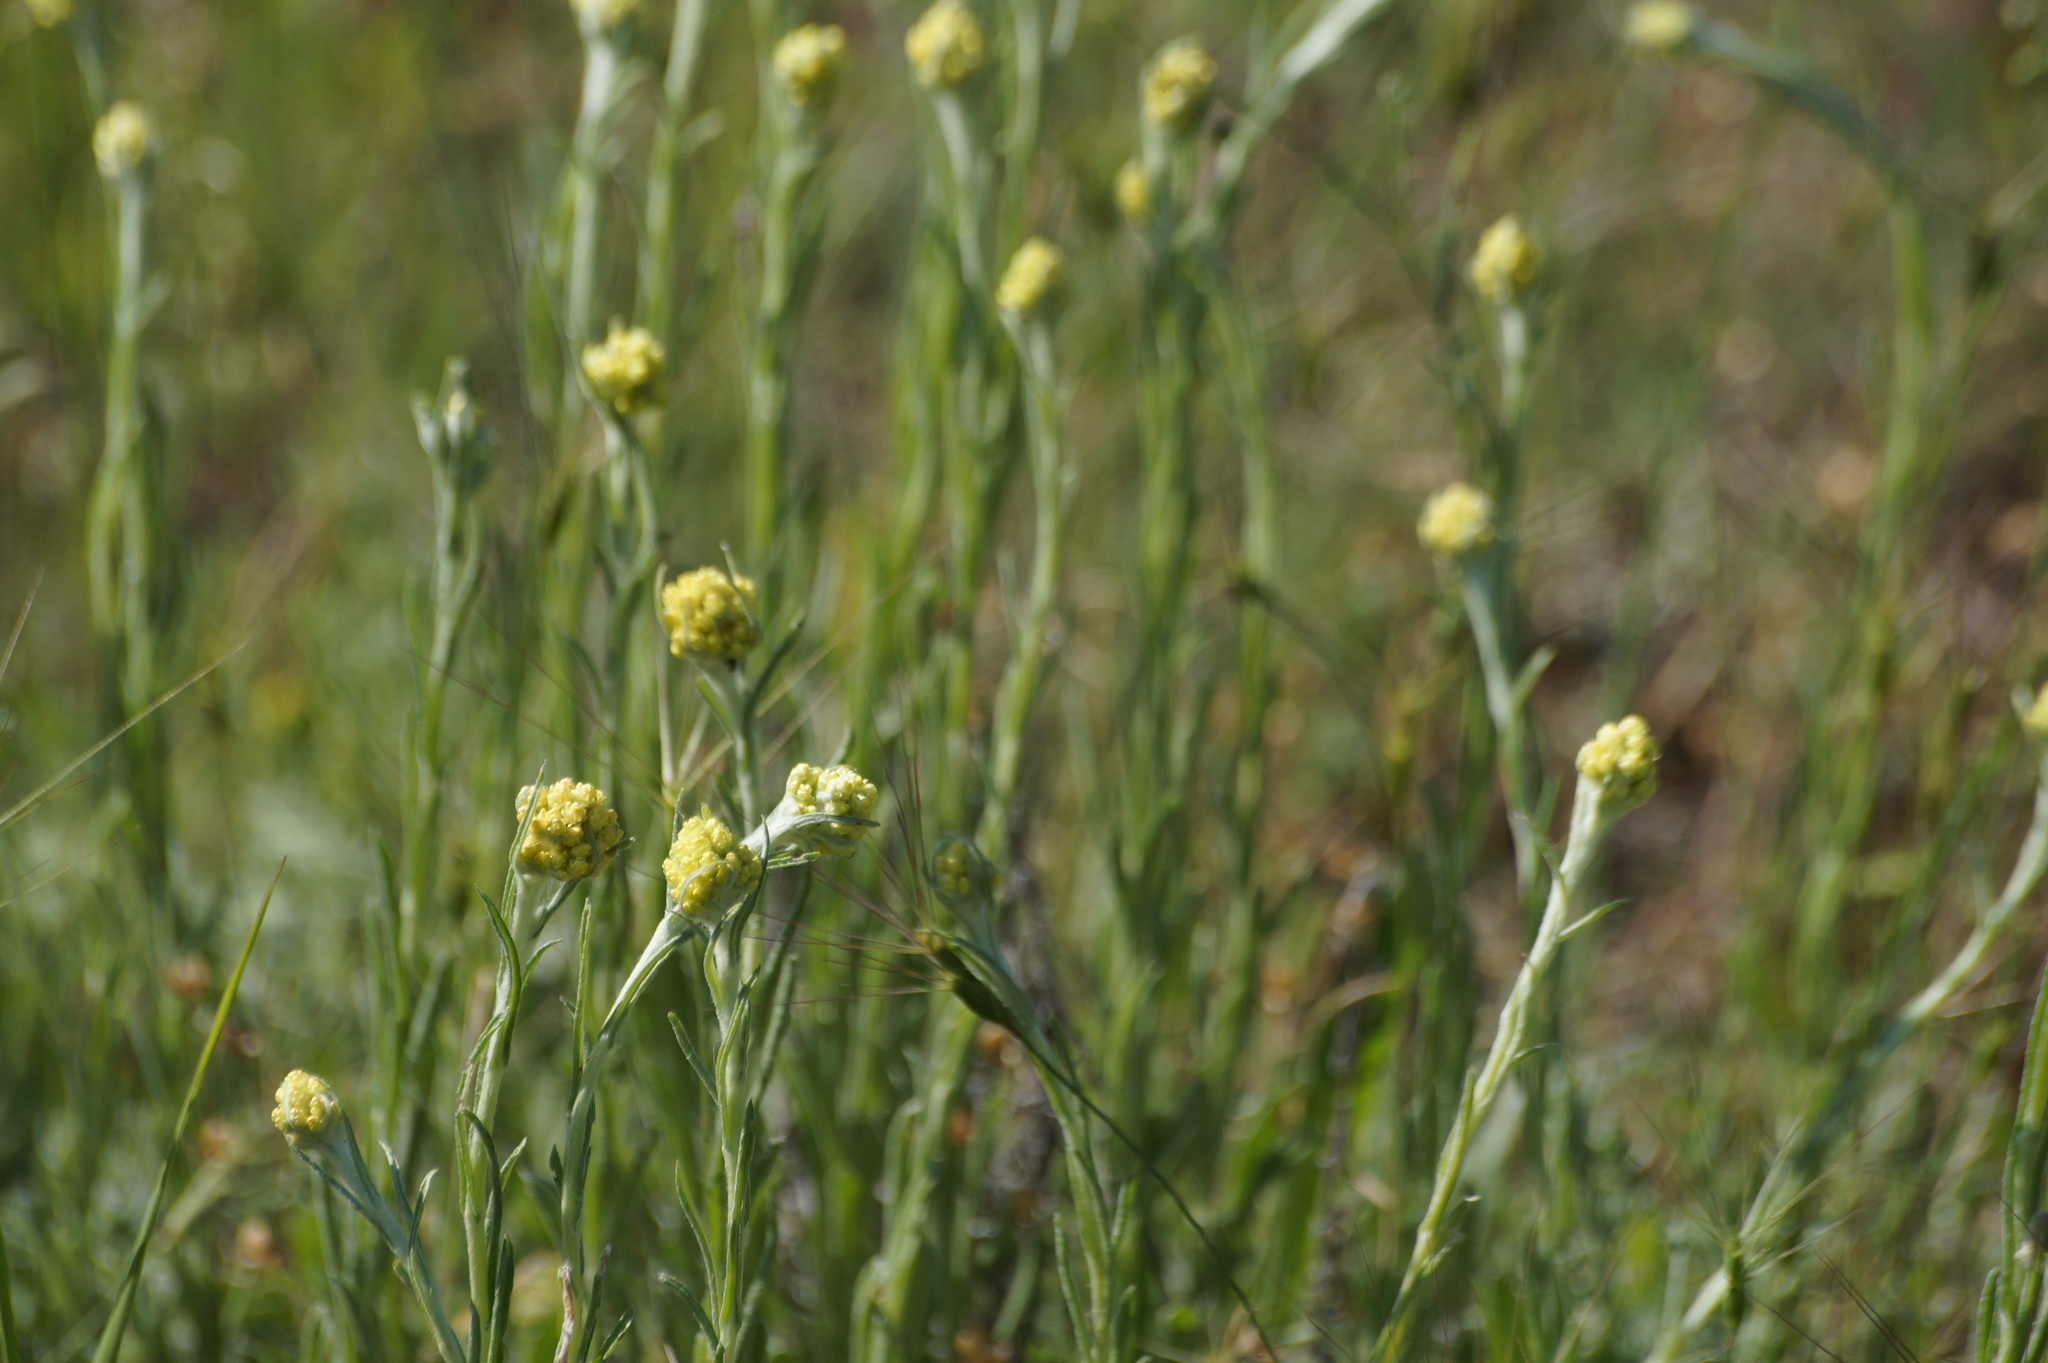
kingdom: Plantae
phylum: Tracheophyta
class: Magnoliopsida
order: Asterales
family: Asteraceae
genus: Helichrysum
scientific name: Helichrysum arenarium
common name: Strawflower
